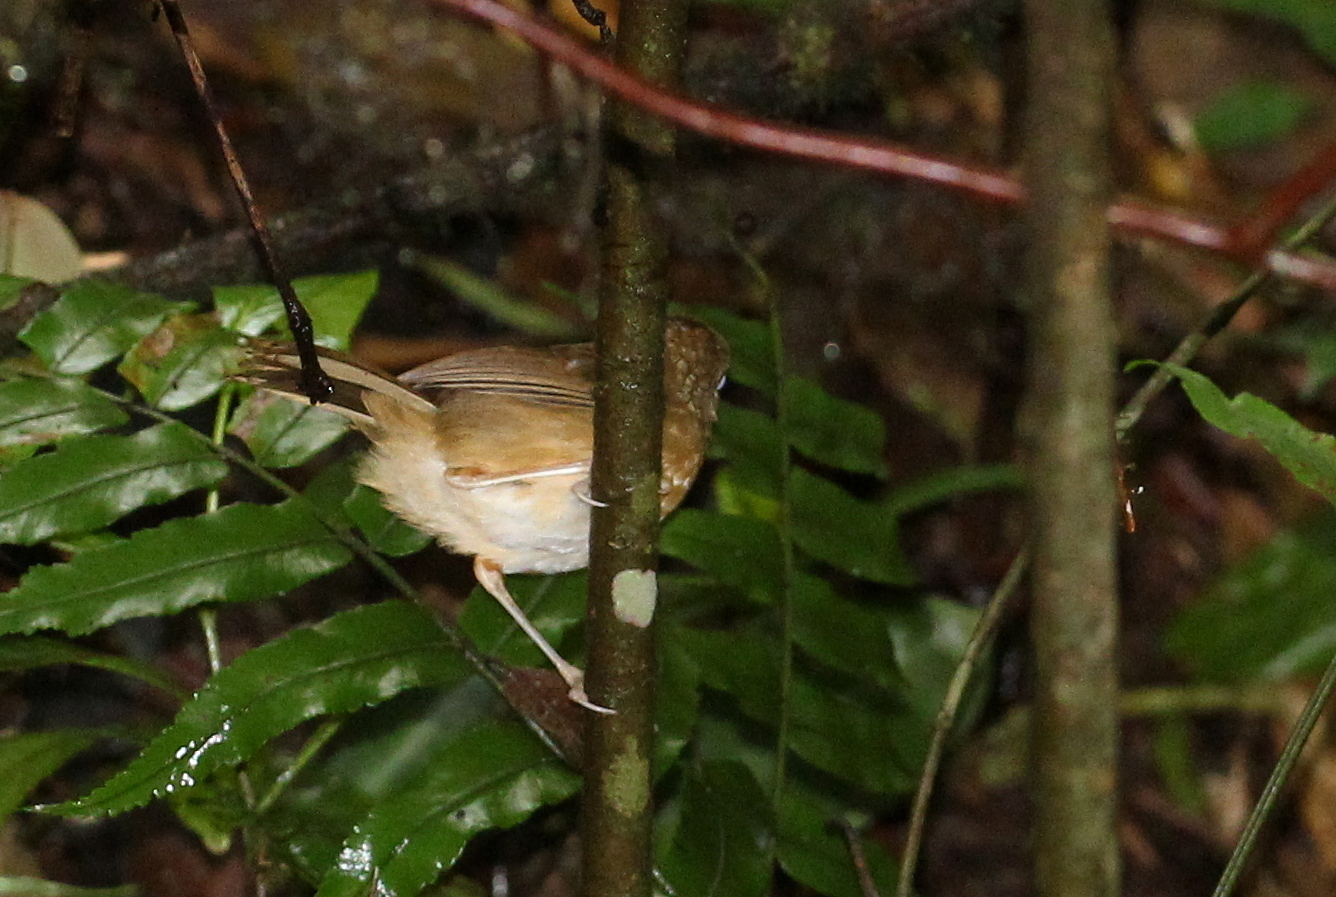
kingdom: Animalia
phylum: Chordata
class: Aves
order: Passeriformes
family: Pellorneidae
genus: Pellorneum
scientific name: Pellorneum tickelli
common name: Buff-breasted babbler
